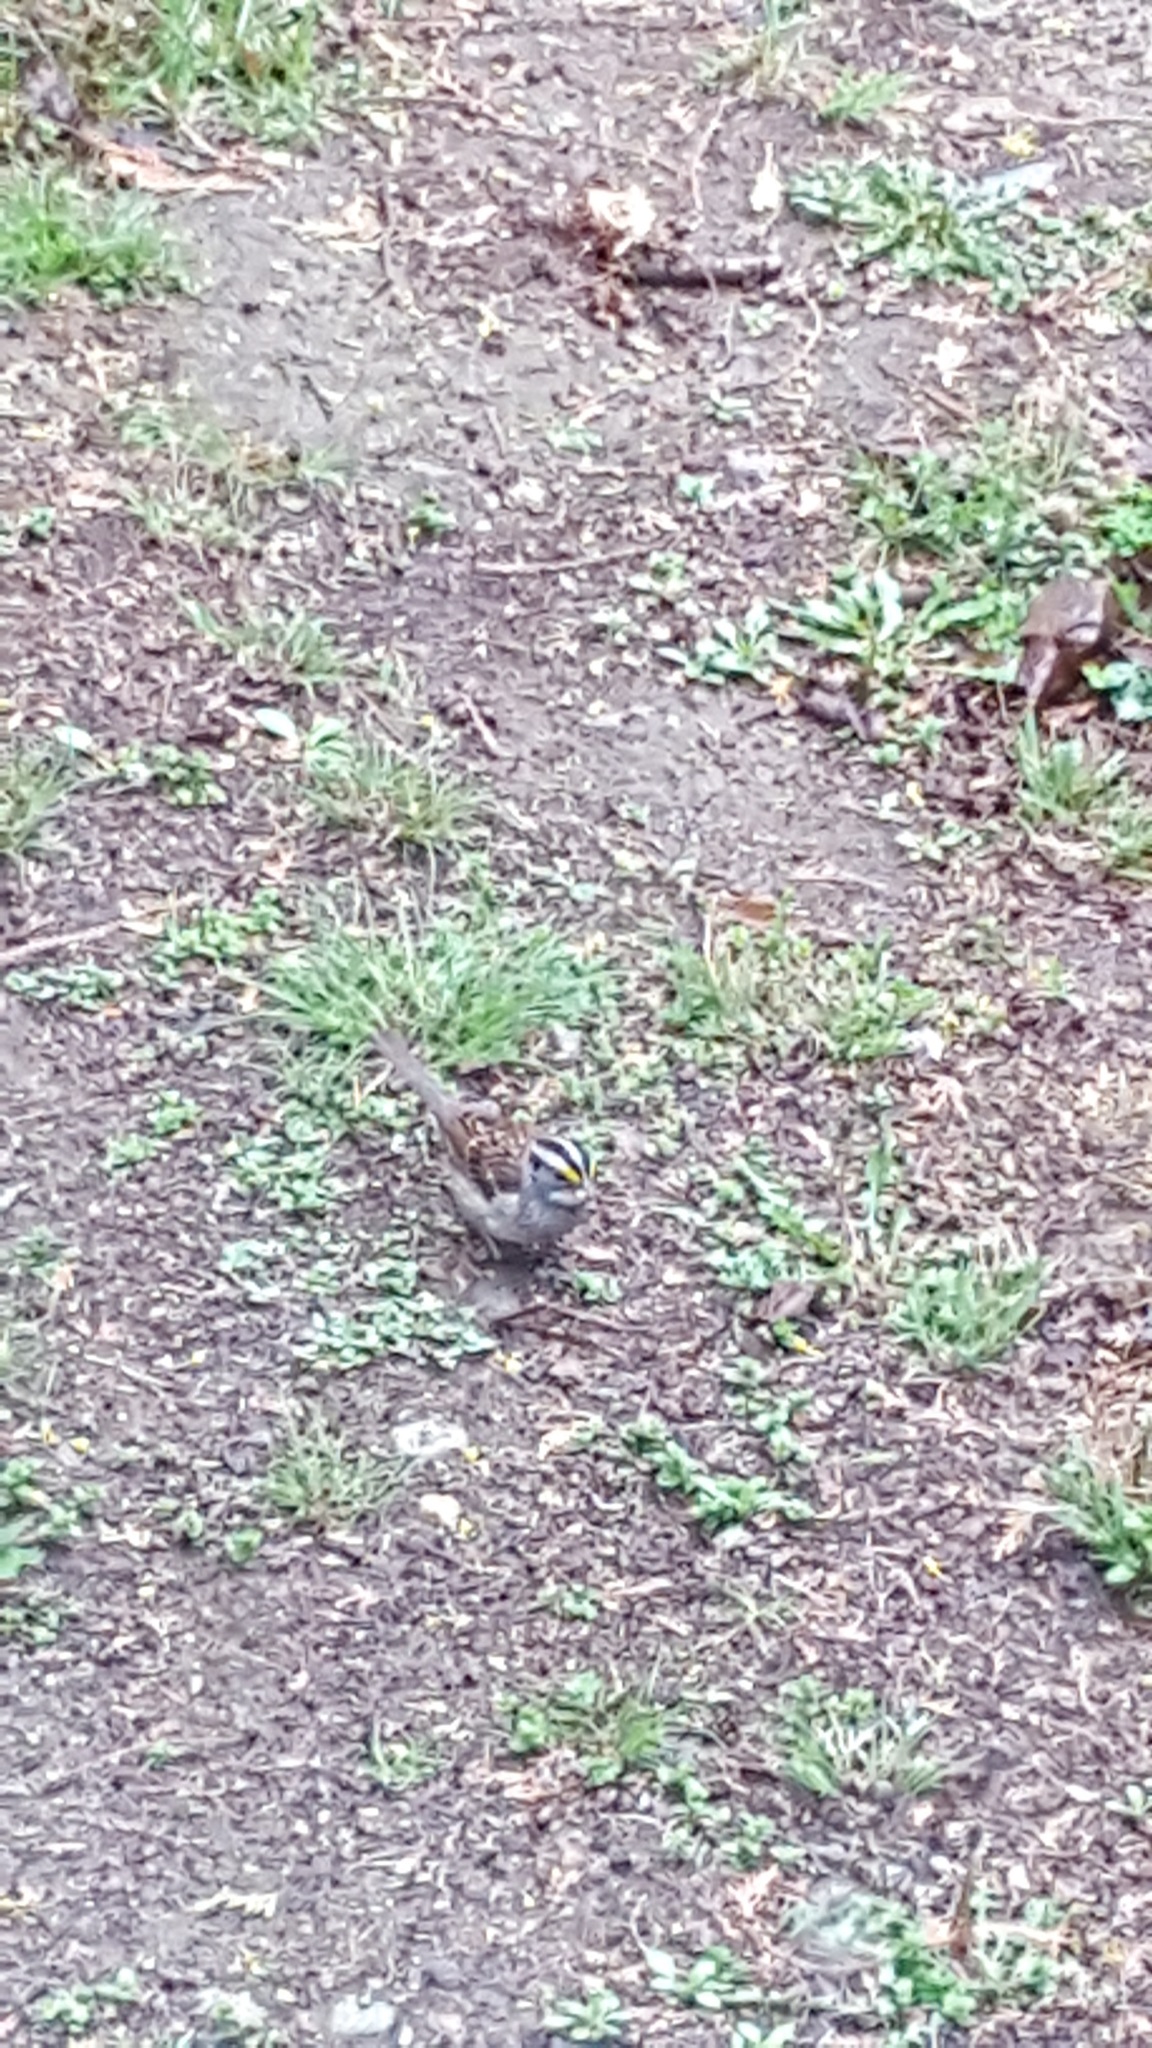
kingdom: Animalia
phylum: Chordata
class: Aves
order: Passeriformes
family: Passerellidae
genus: Zonotrichia
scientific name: Zonotrichia albicollis
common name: White-throated sparrow
